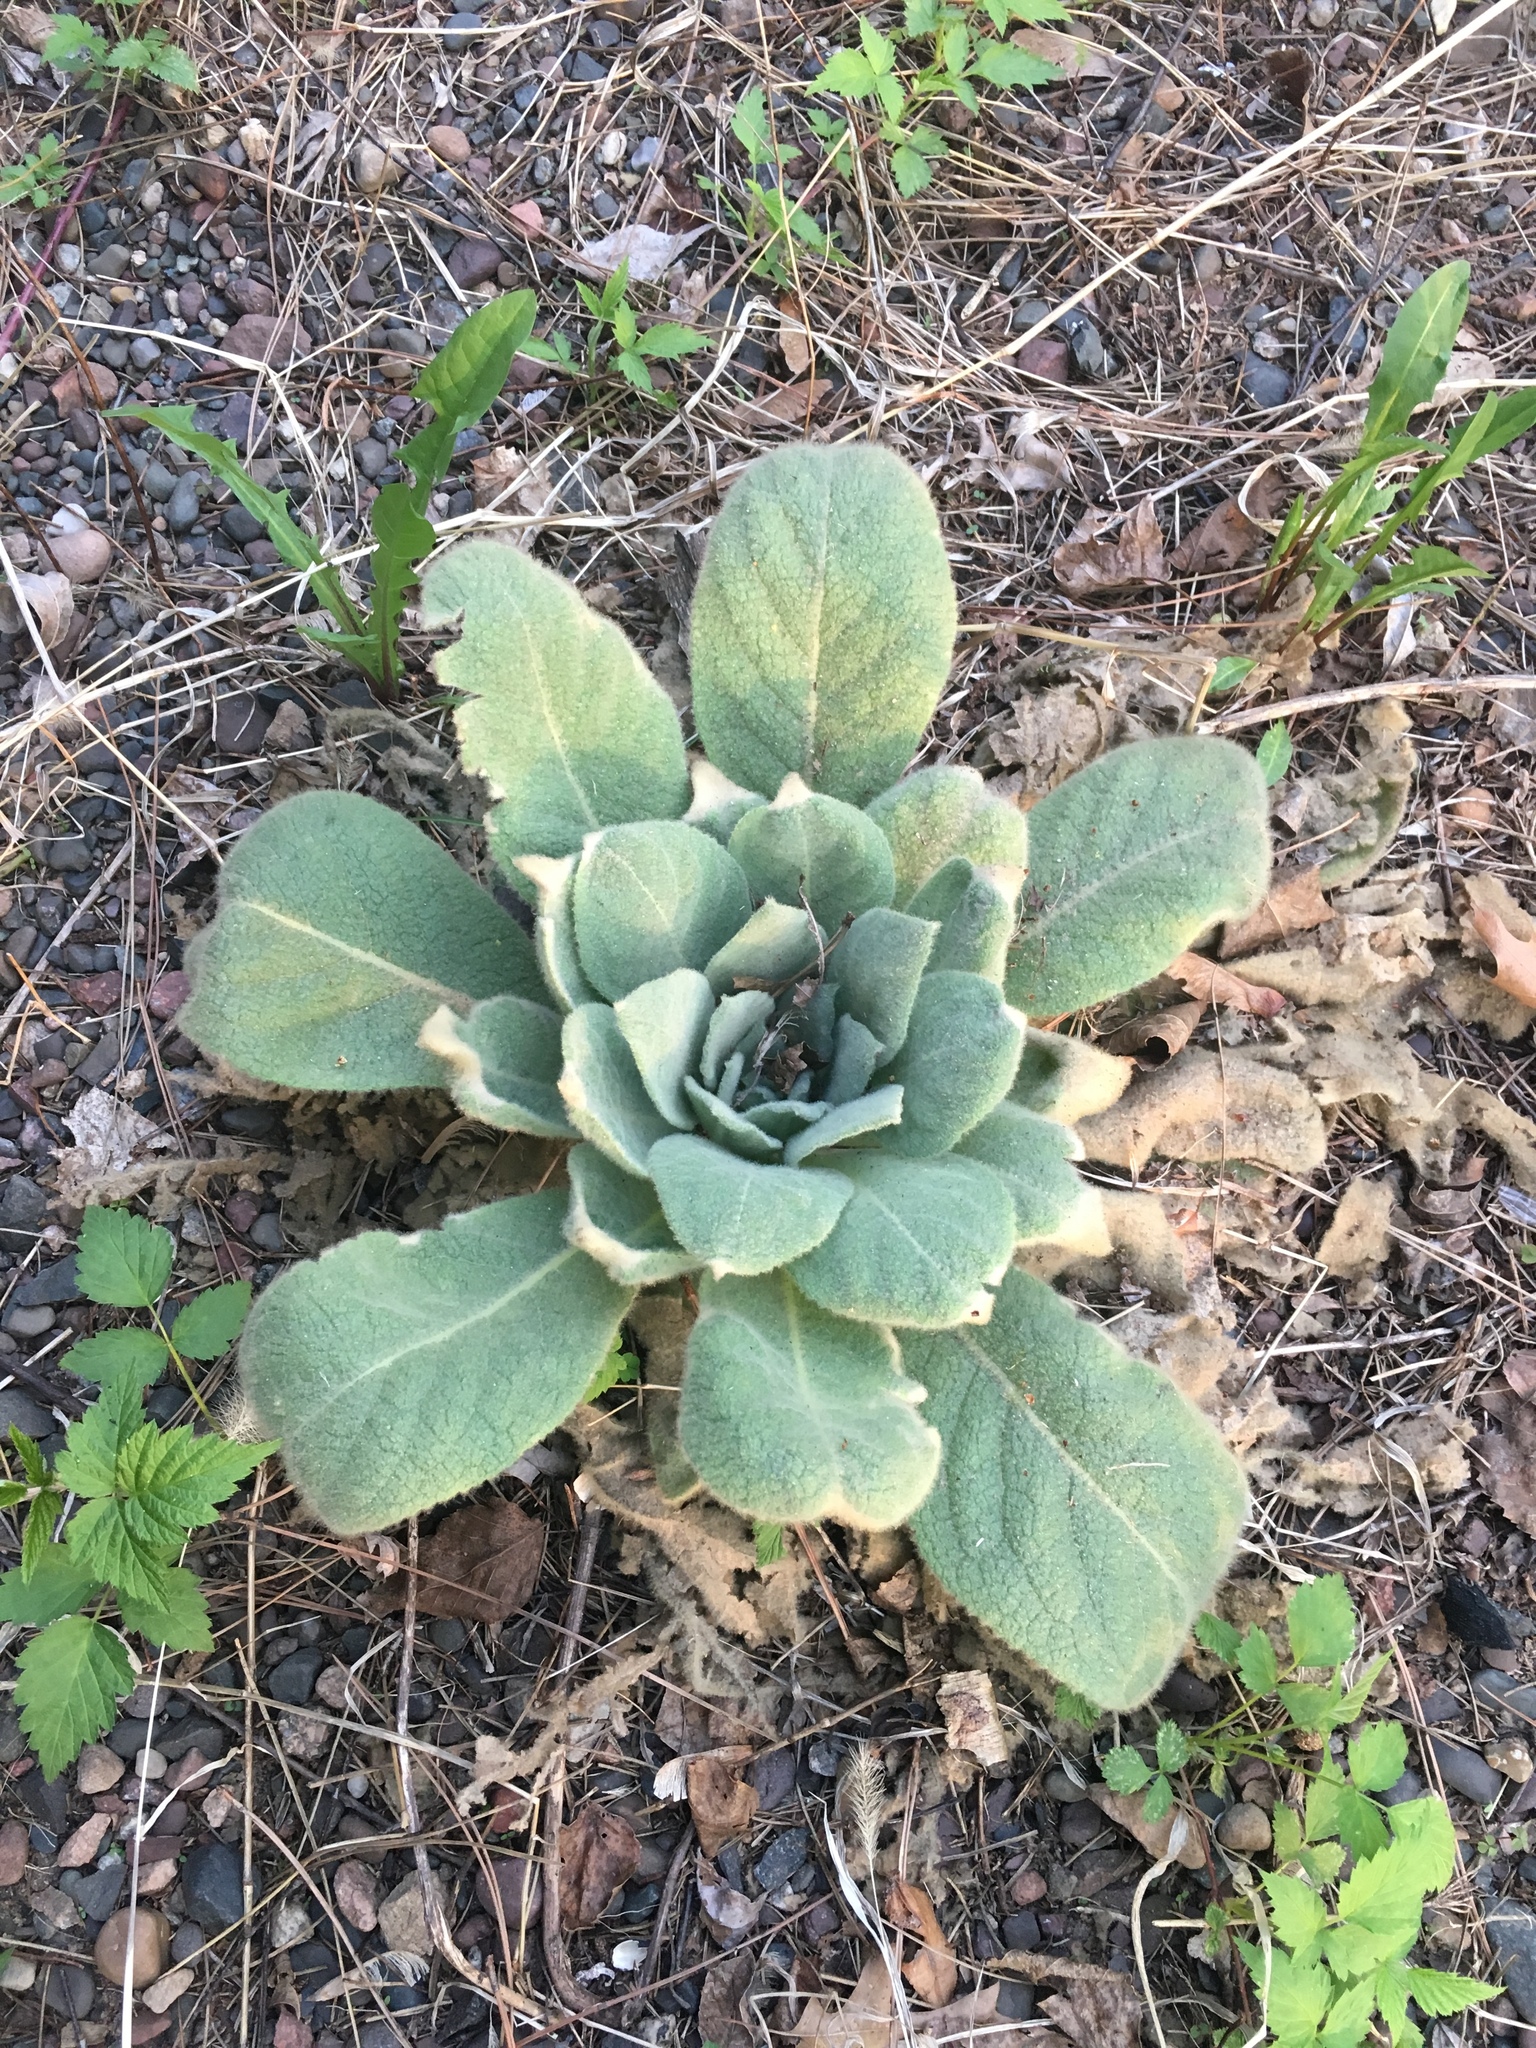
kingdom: Plantae
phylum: Tracheophyta
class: Magnoliopsida
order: Lamiales
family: Scrophulariaceae
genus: Verbascum
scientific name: Verbascum thapsus
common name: Common mullein
